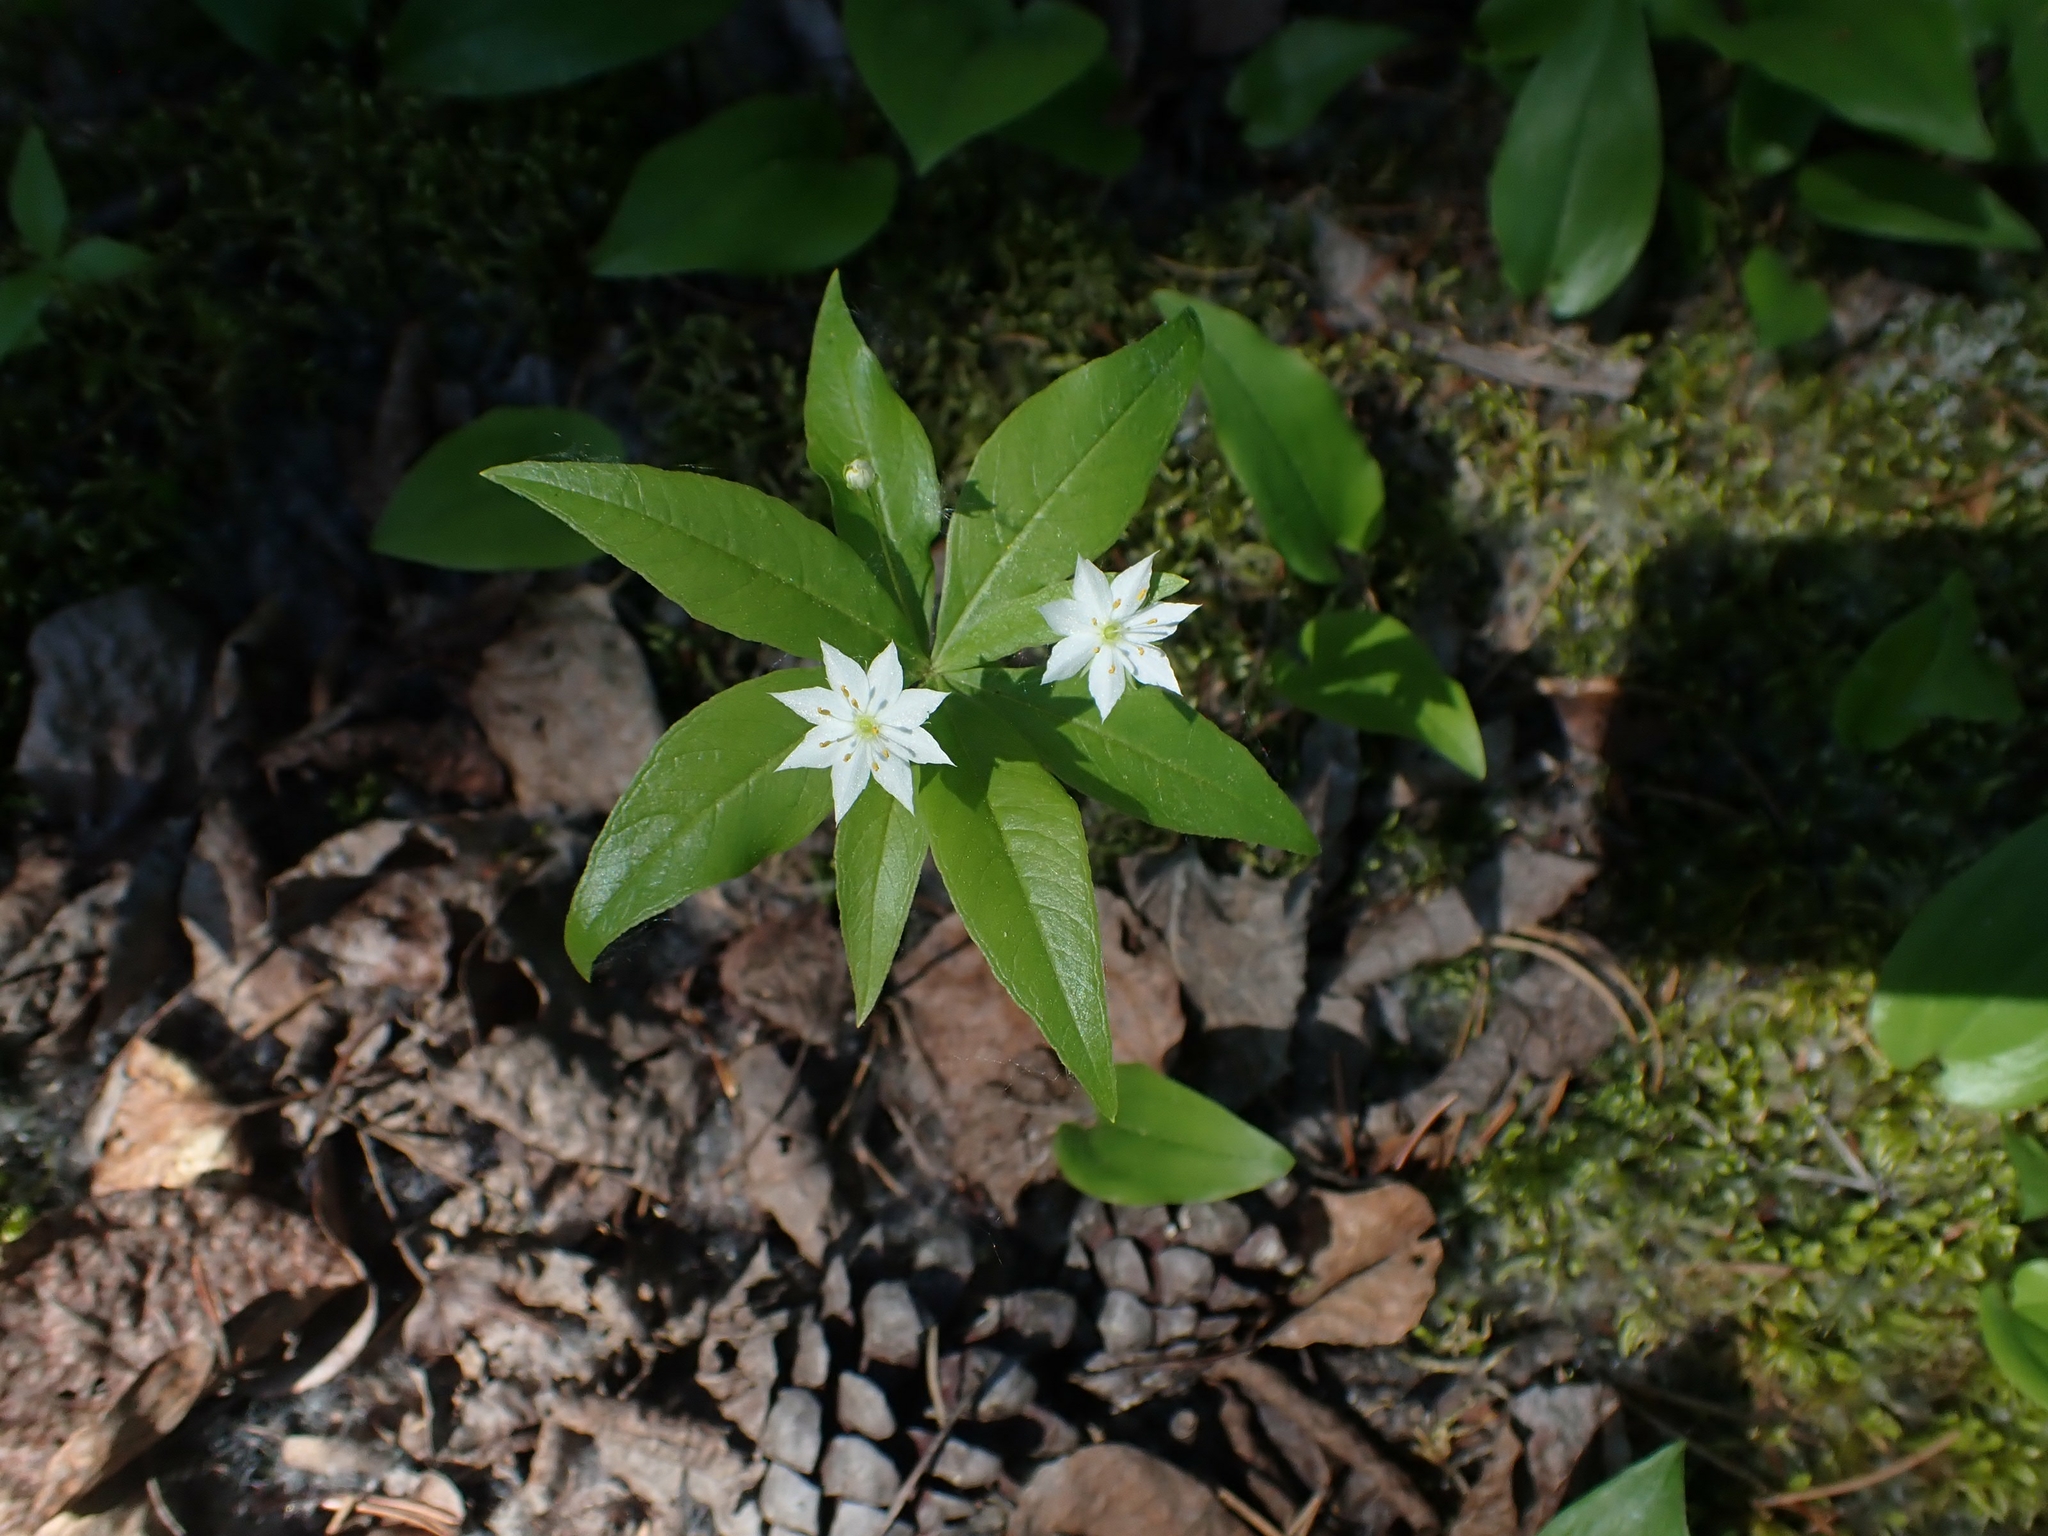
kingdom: Plantae
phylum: Tracheophyta
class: Magnoliopsida
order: Ericales
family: Primulaceae
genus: Lysimachia
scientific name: Lysimachia borealis
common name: American starflower
